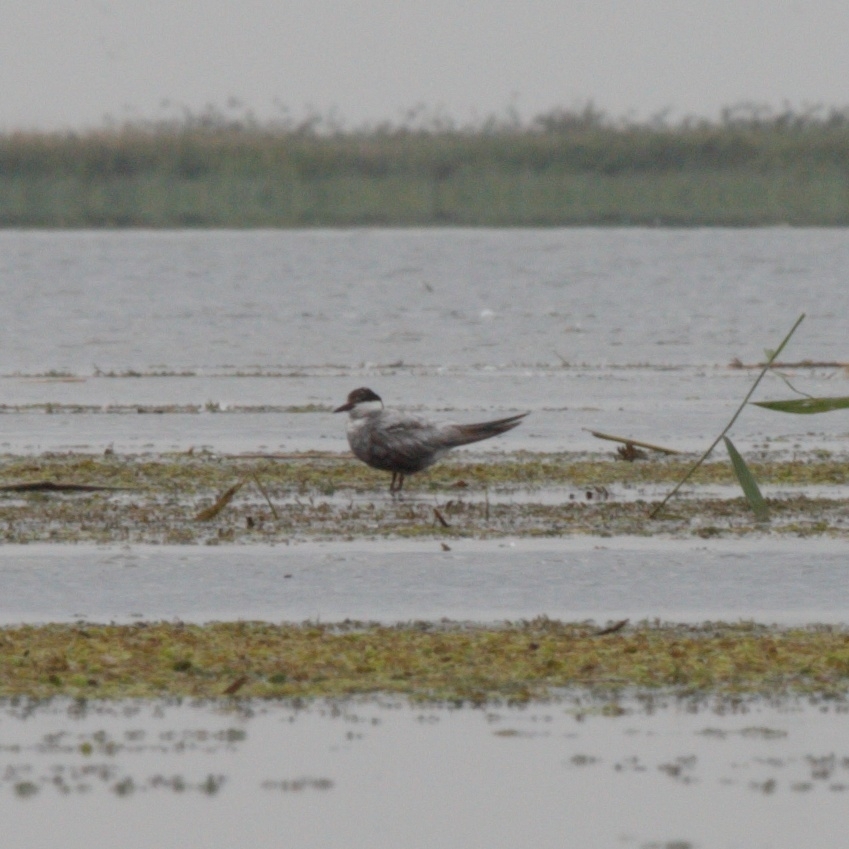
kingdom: Animalia
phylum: Chordata
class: Aves
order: Charadriiformes
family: Laridae
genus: Chlidonias
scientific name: Chlidonias hybrida
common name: Whiskered tern
